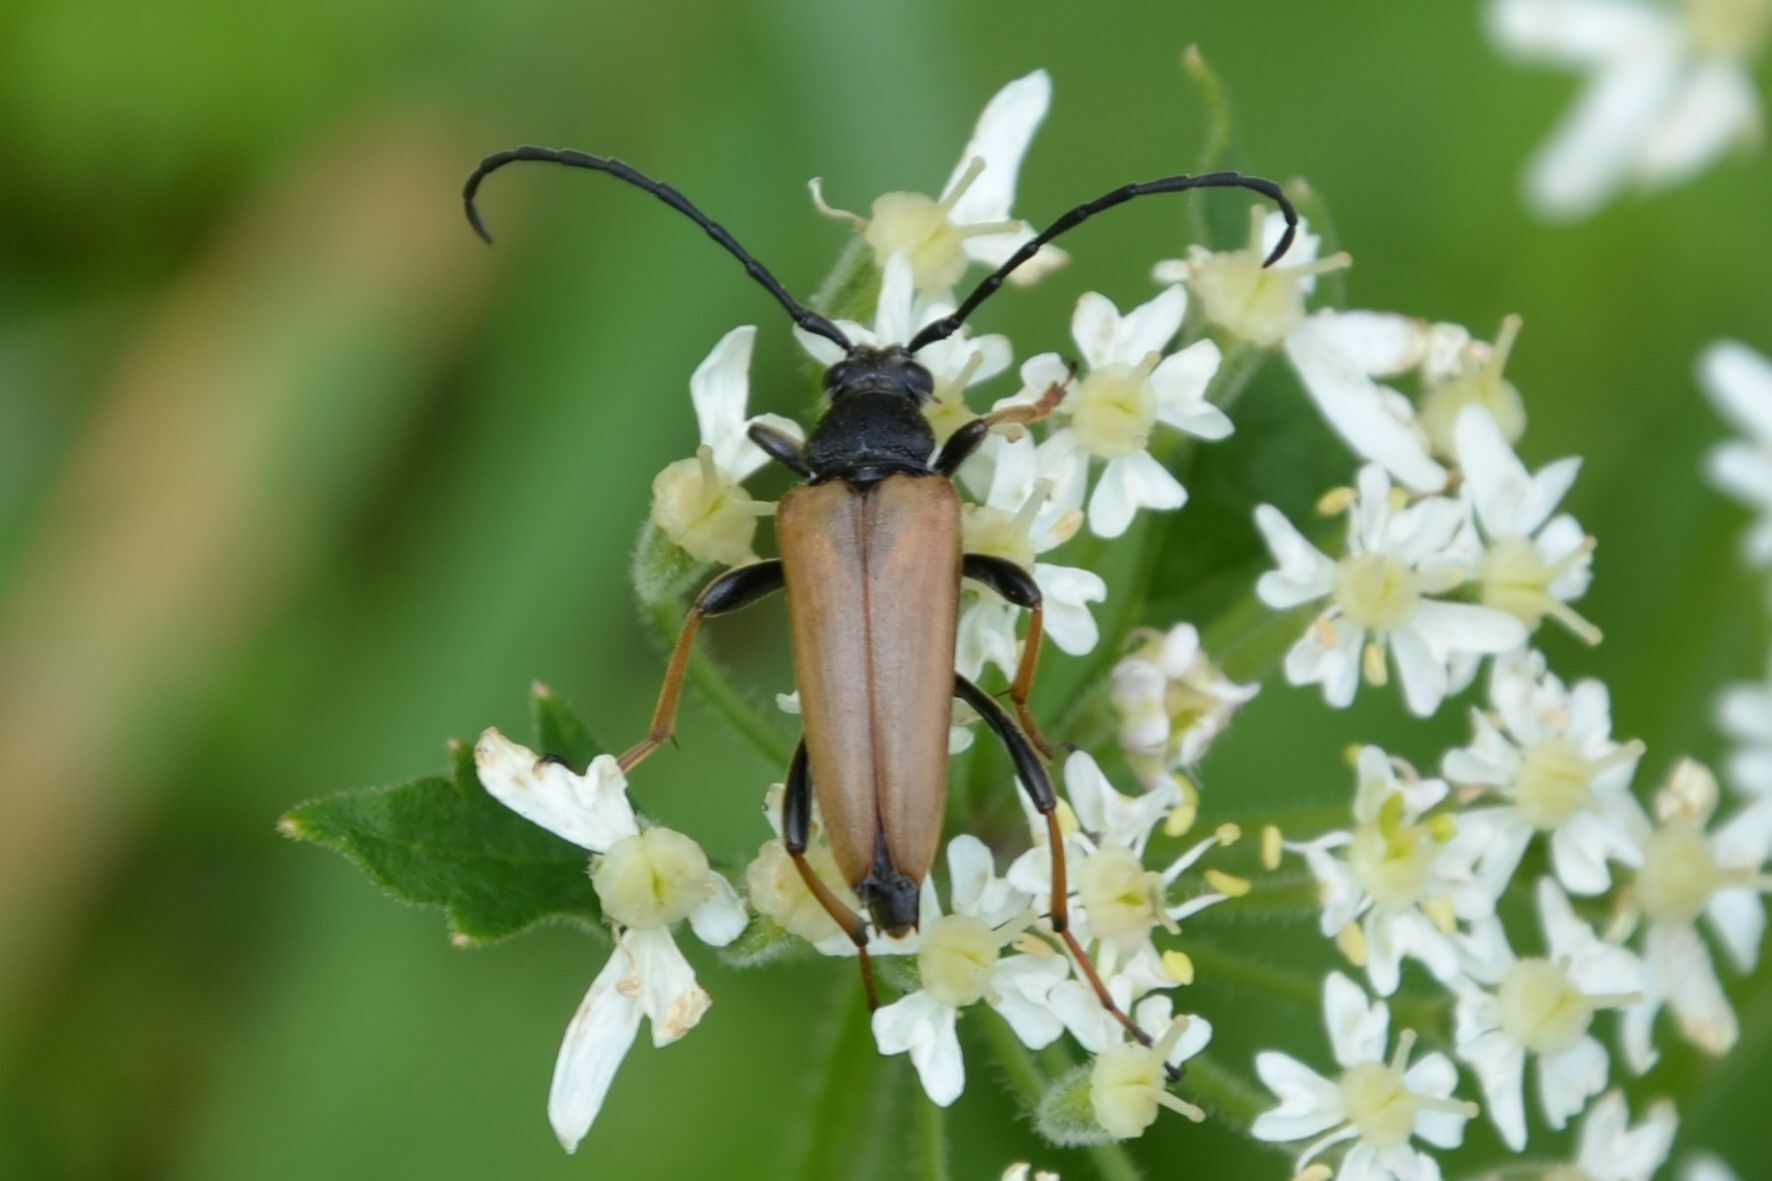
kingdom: Animalia
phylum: Arthropoda
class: Insecta
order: Coleoptera
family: Cerambycidae
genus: Stictoleptura
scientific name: Stictoleptura rubra
